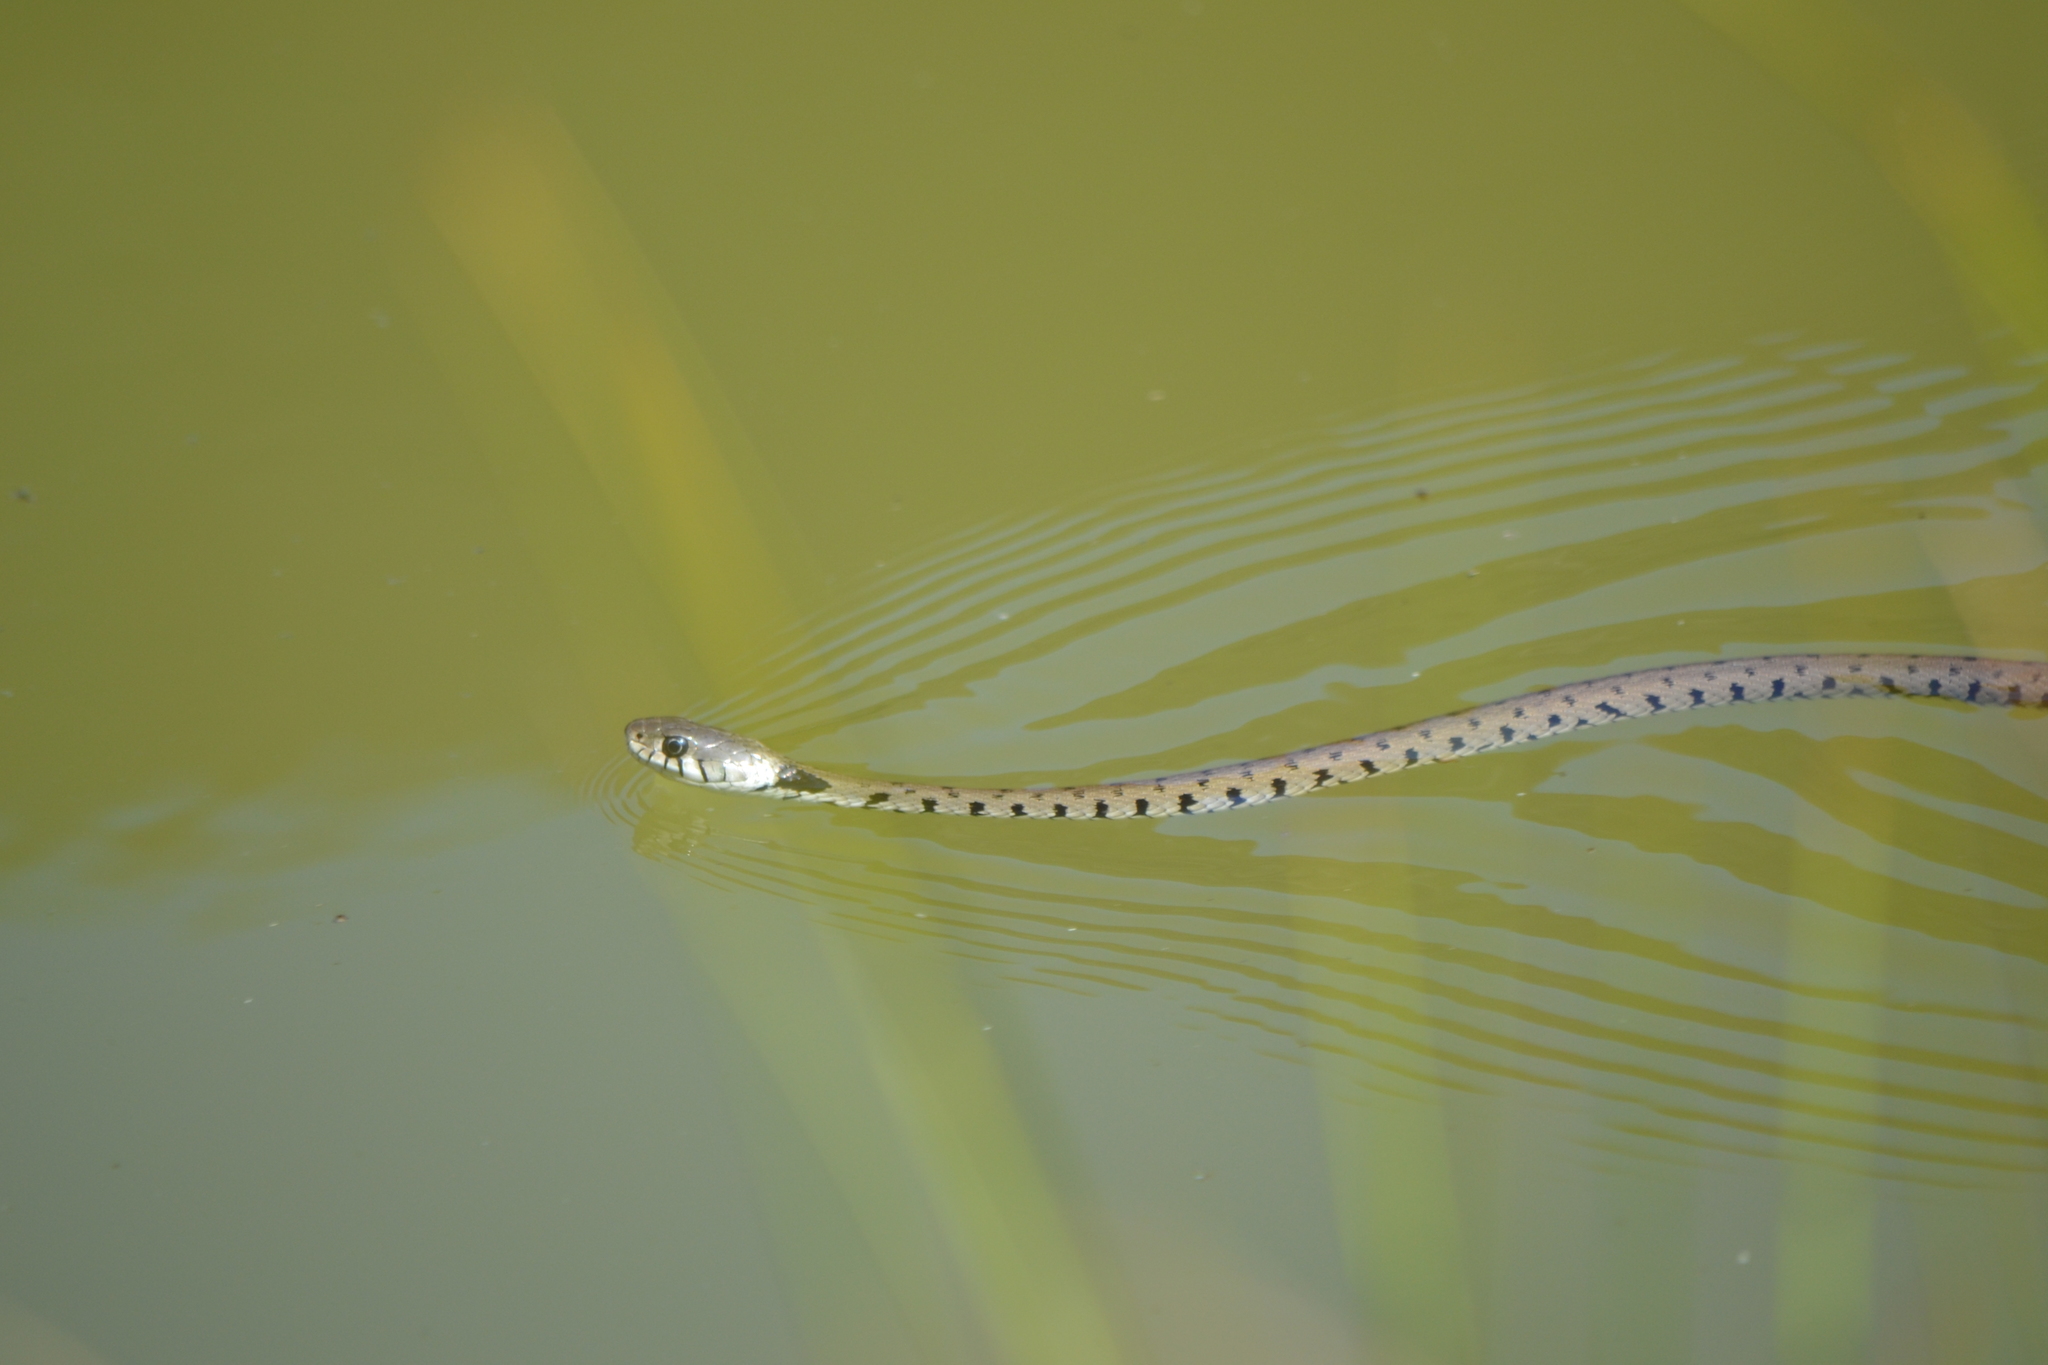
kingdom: Animalia
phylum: Chordata
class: Squamata
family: Colubridae
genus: Natrix
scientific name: Natrix helvetica
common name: Banded grass snake
